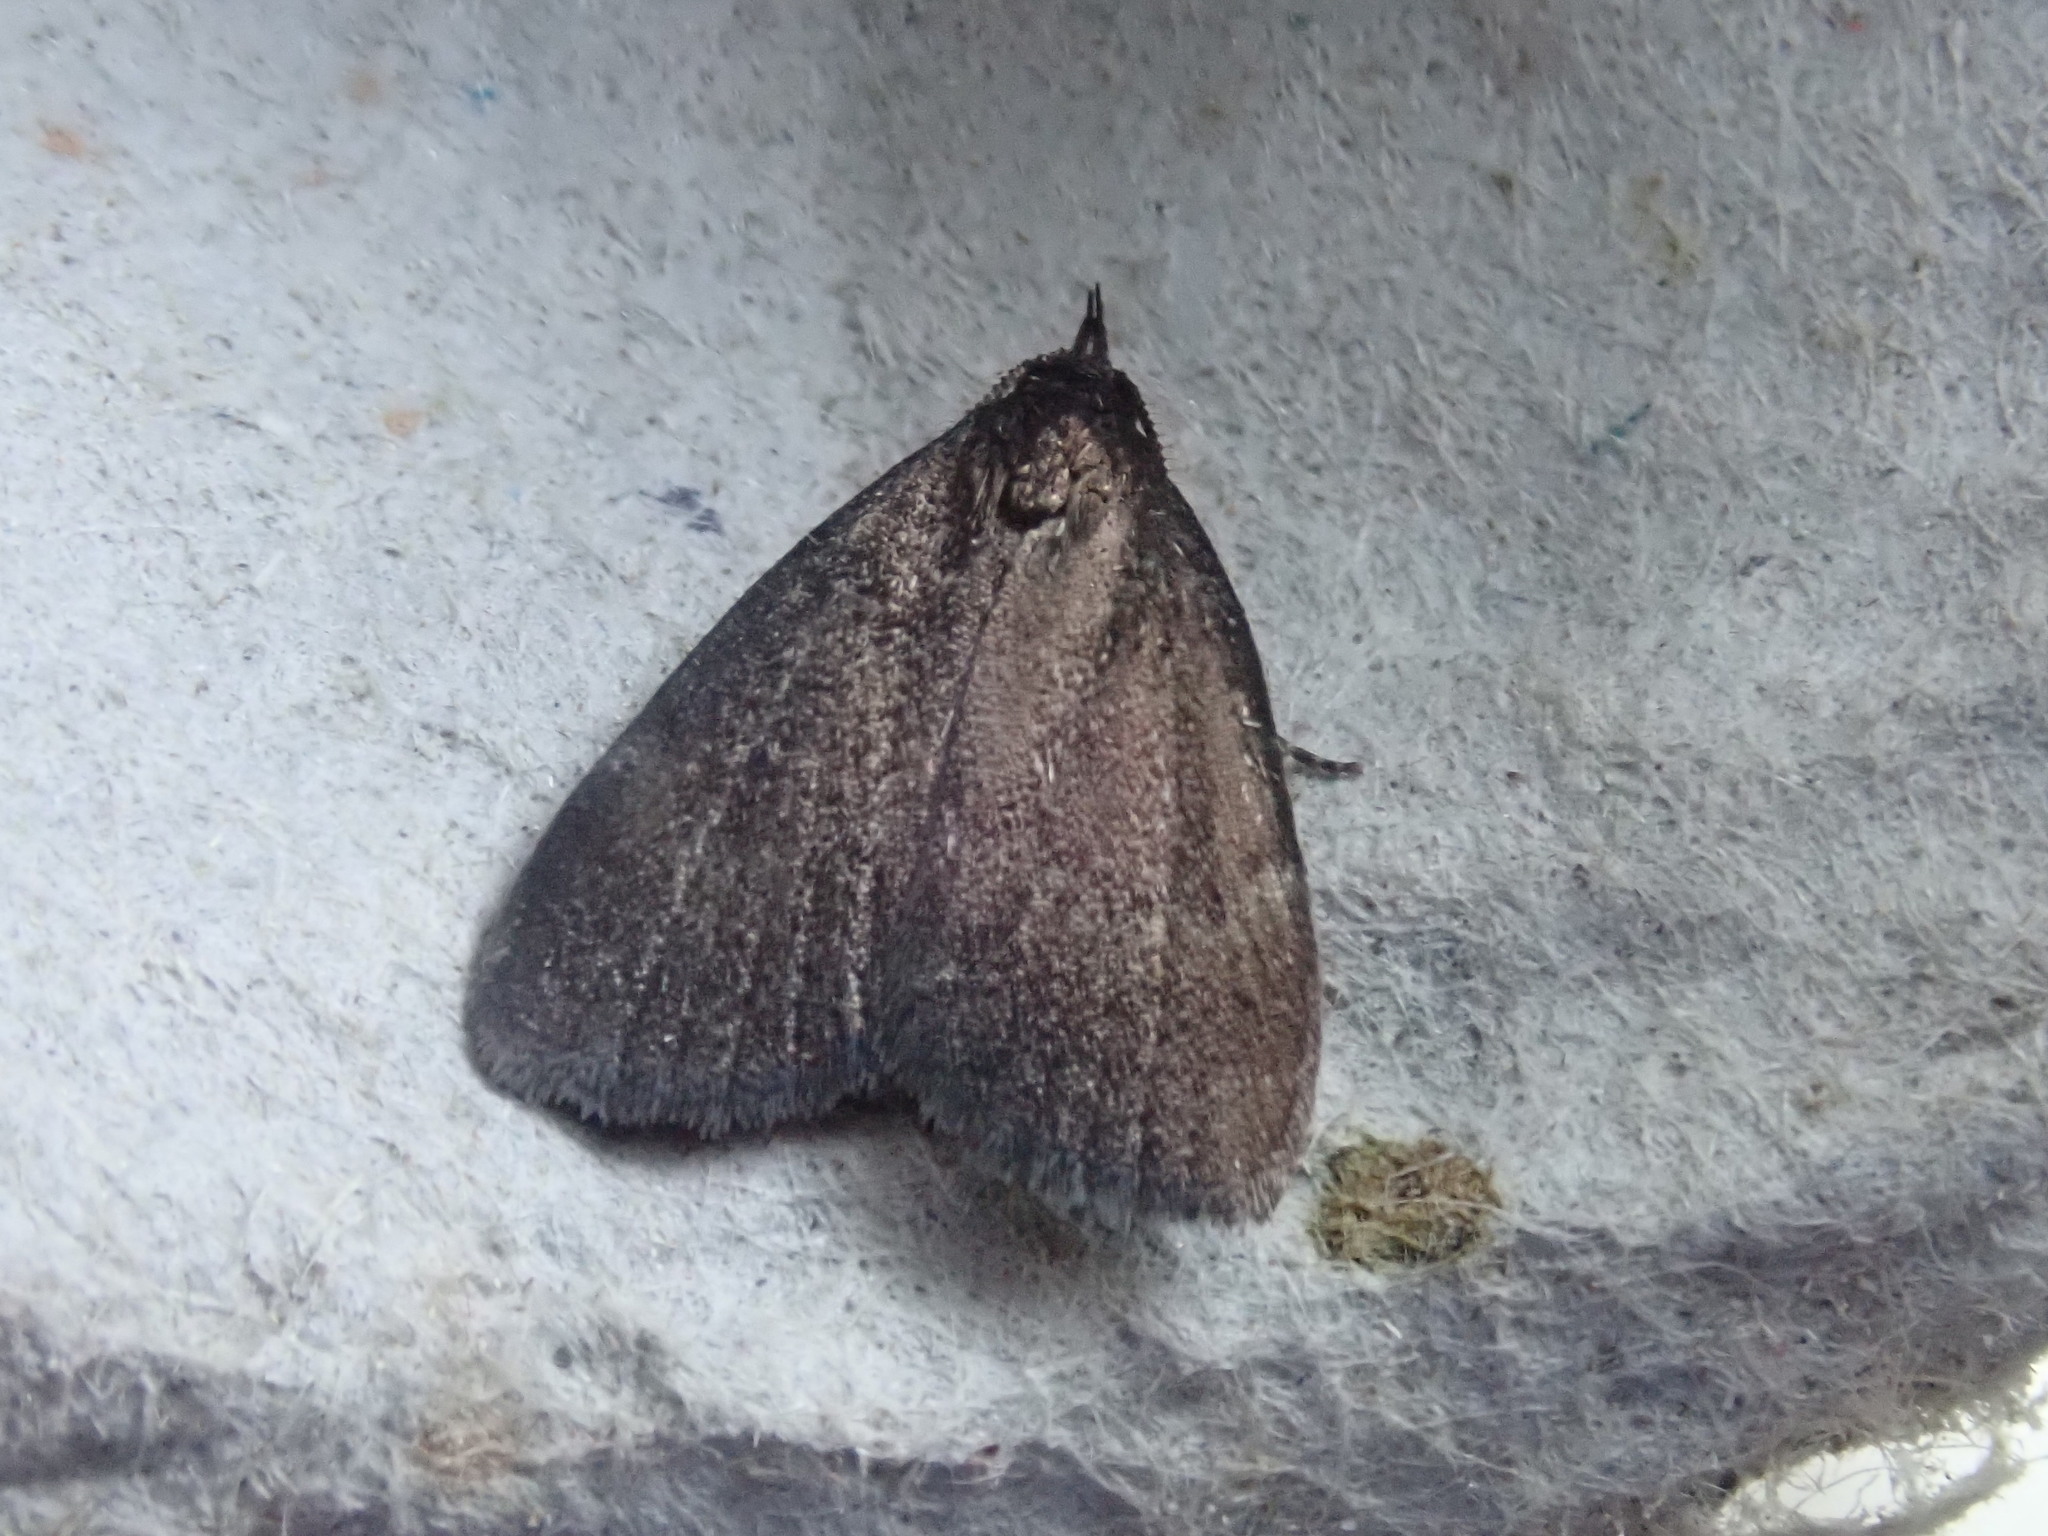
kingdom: Animalia
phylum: Arthropoda
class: Insecta
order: Lepidoptera
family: Erebidae
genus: Idia
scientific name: Idia rotundalis
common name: Rotund idia moth
